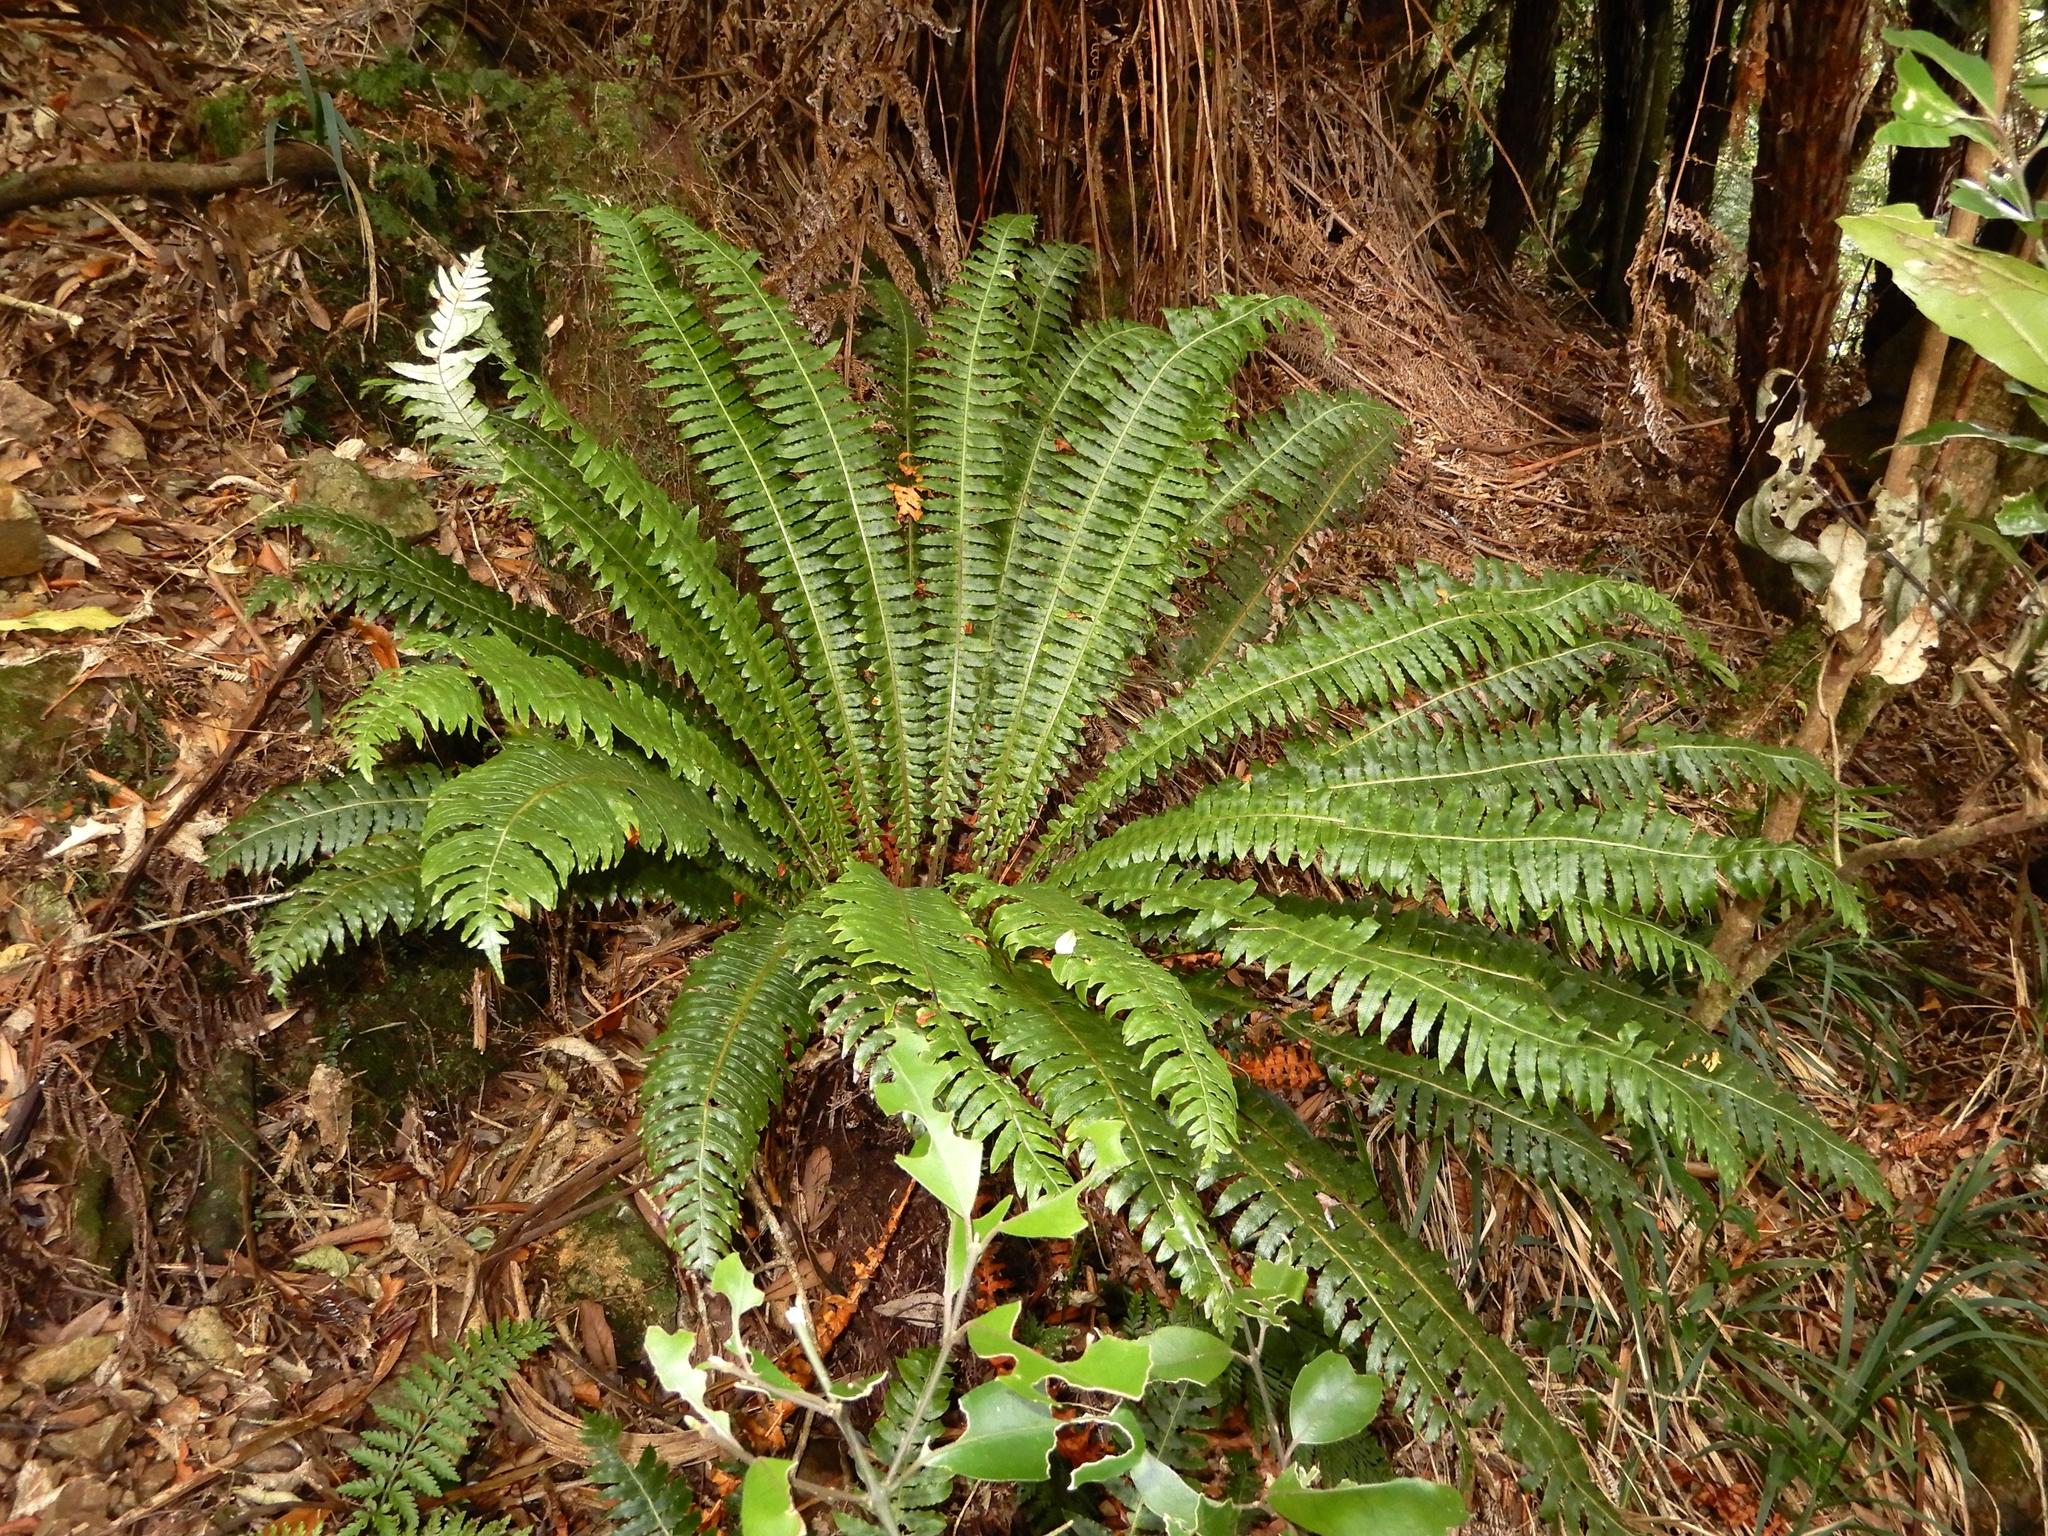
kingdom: Plantae
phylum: Tracheophyta
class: Polypodiopsida
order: Polypodiales
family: Blechnaceae
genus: Lomaria
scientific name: Lomaria discolor
